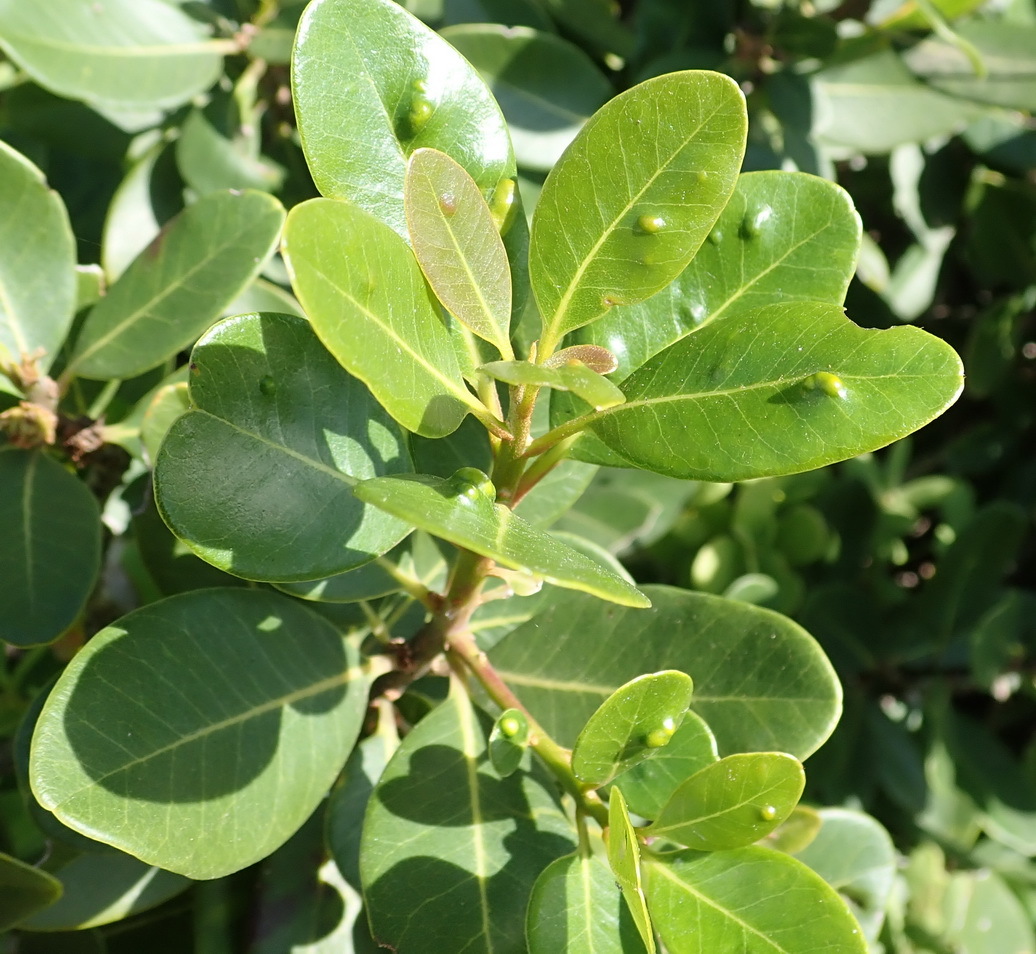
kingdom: Plantae
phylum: Tracheophyta
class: Magnoliopsida
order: Ericales
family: Sapotaceae
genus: Sideroxylon
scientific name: Sideroxylon inerme
